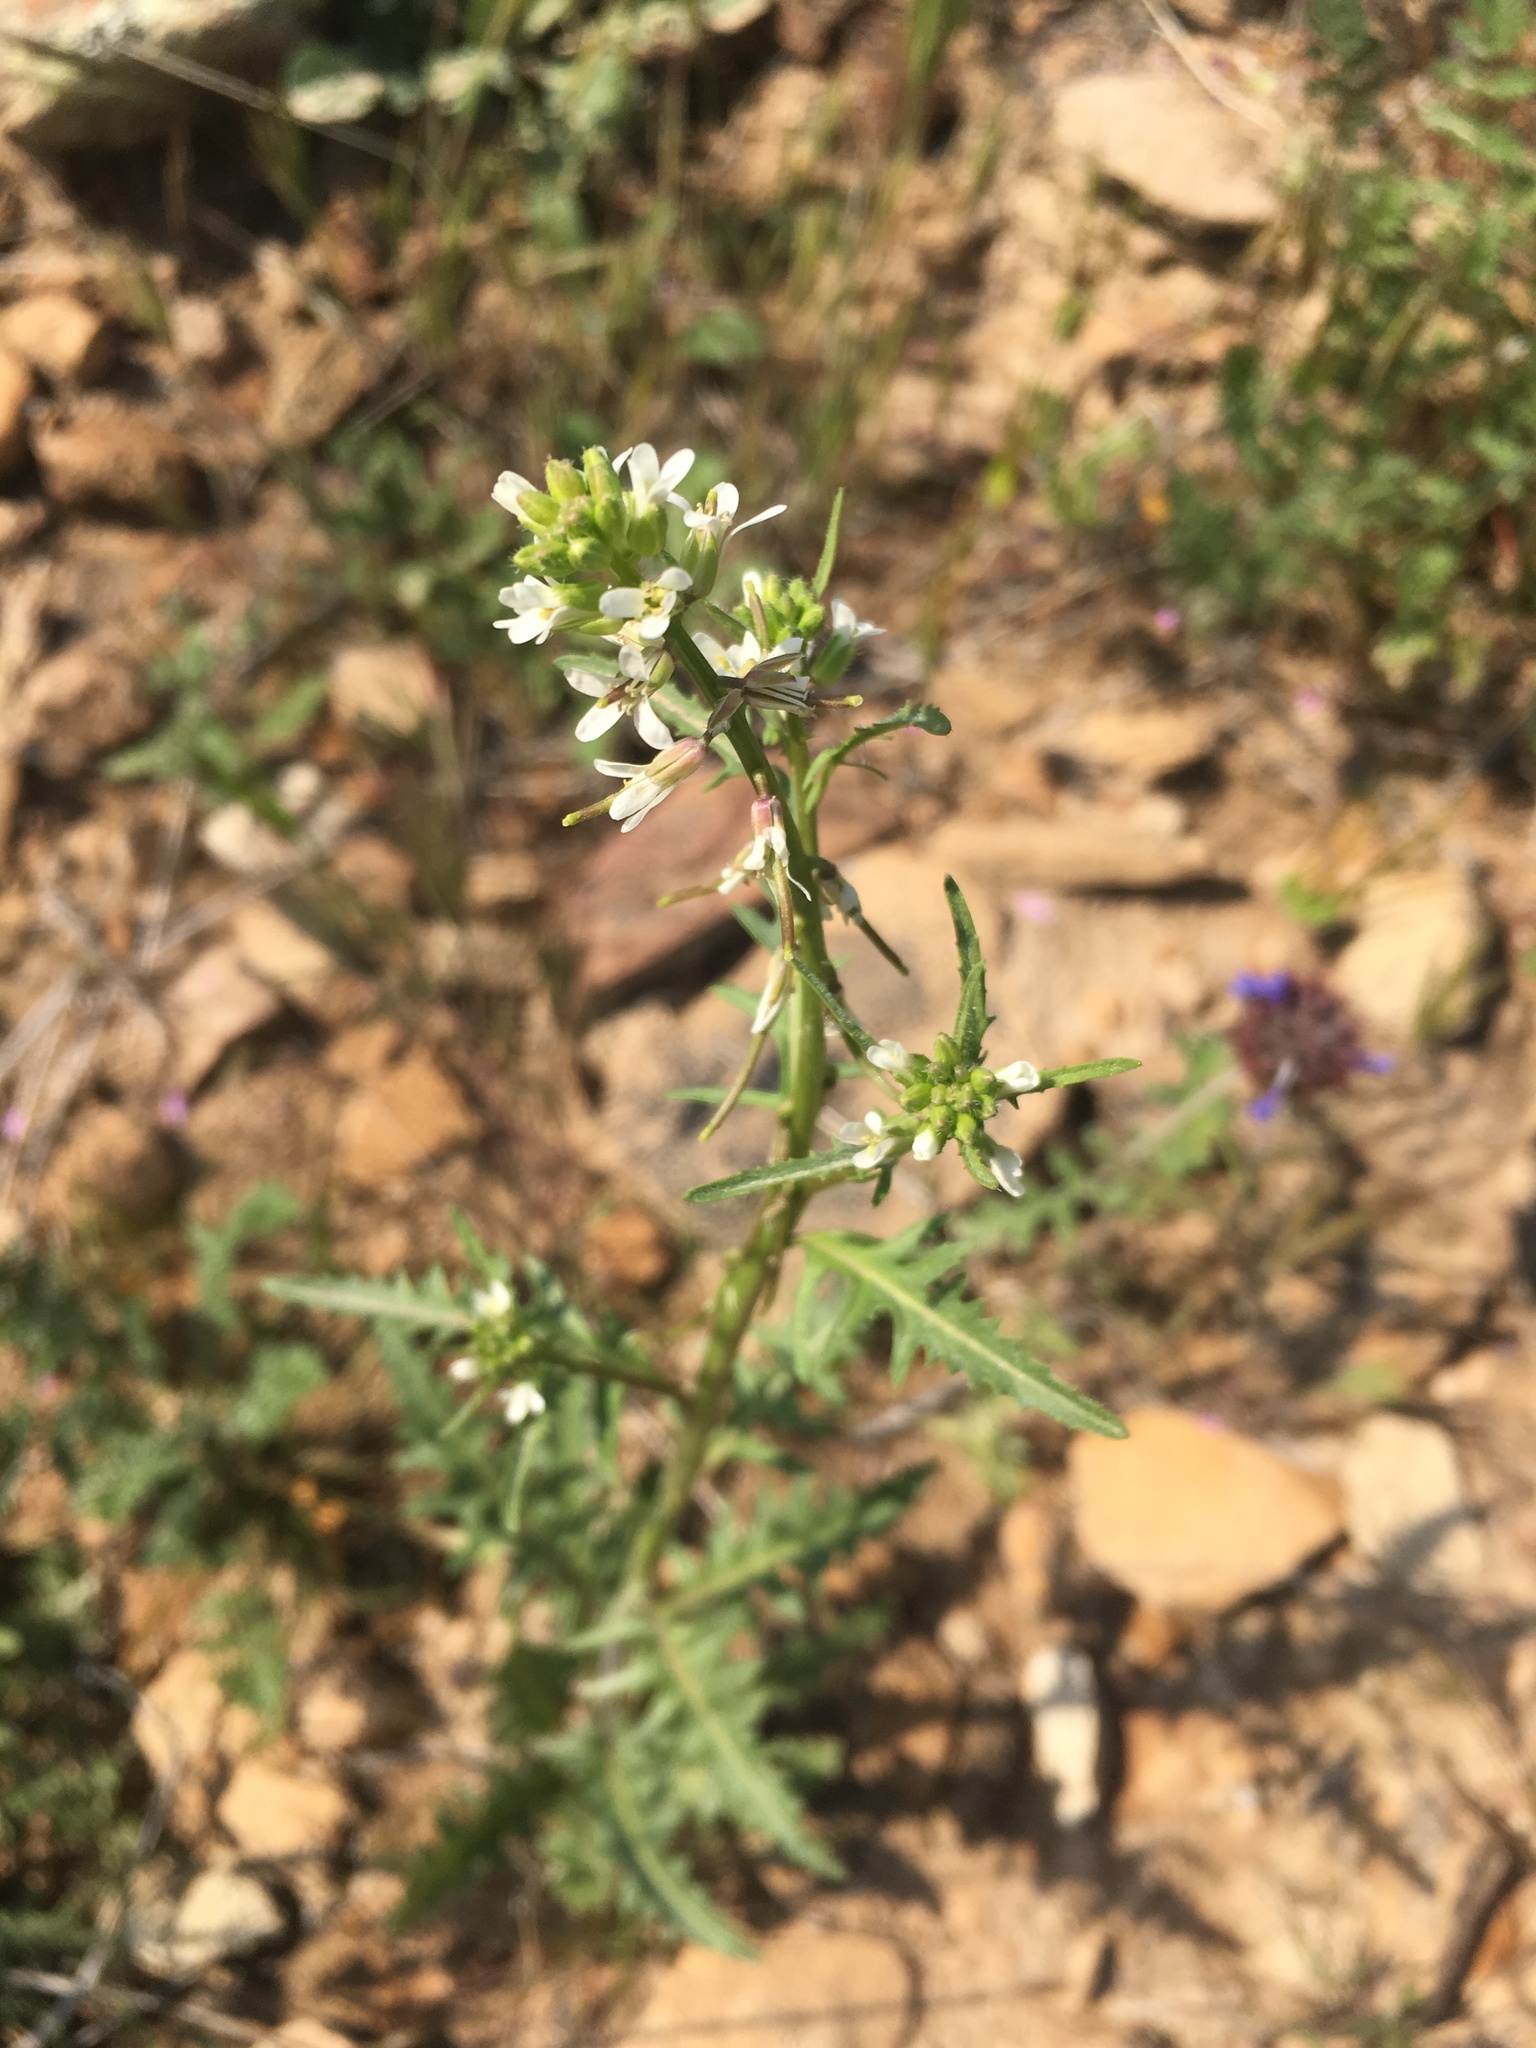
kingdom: Plantae
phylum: Tracheophyta
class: Magnoliopsida
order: Brassicales
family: Brassicaceae
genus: Streptanthus
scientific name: Streptanthus lasiophyllus
